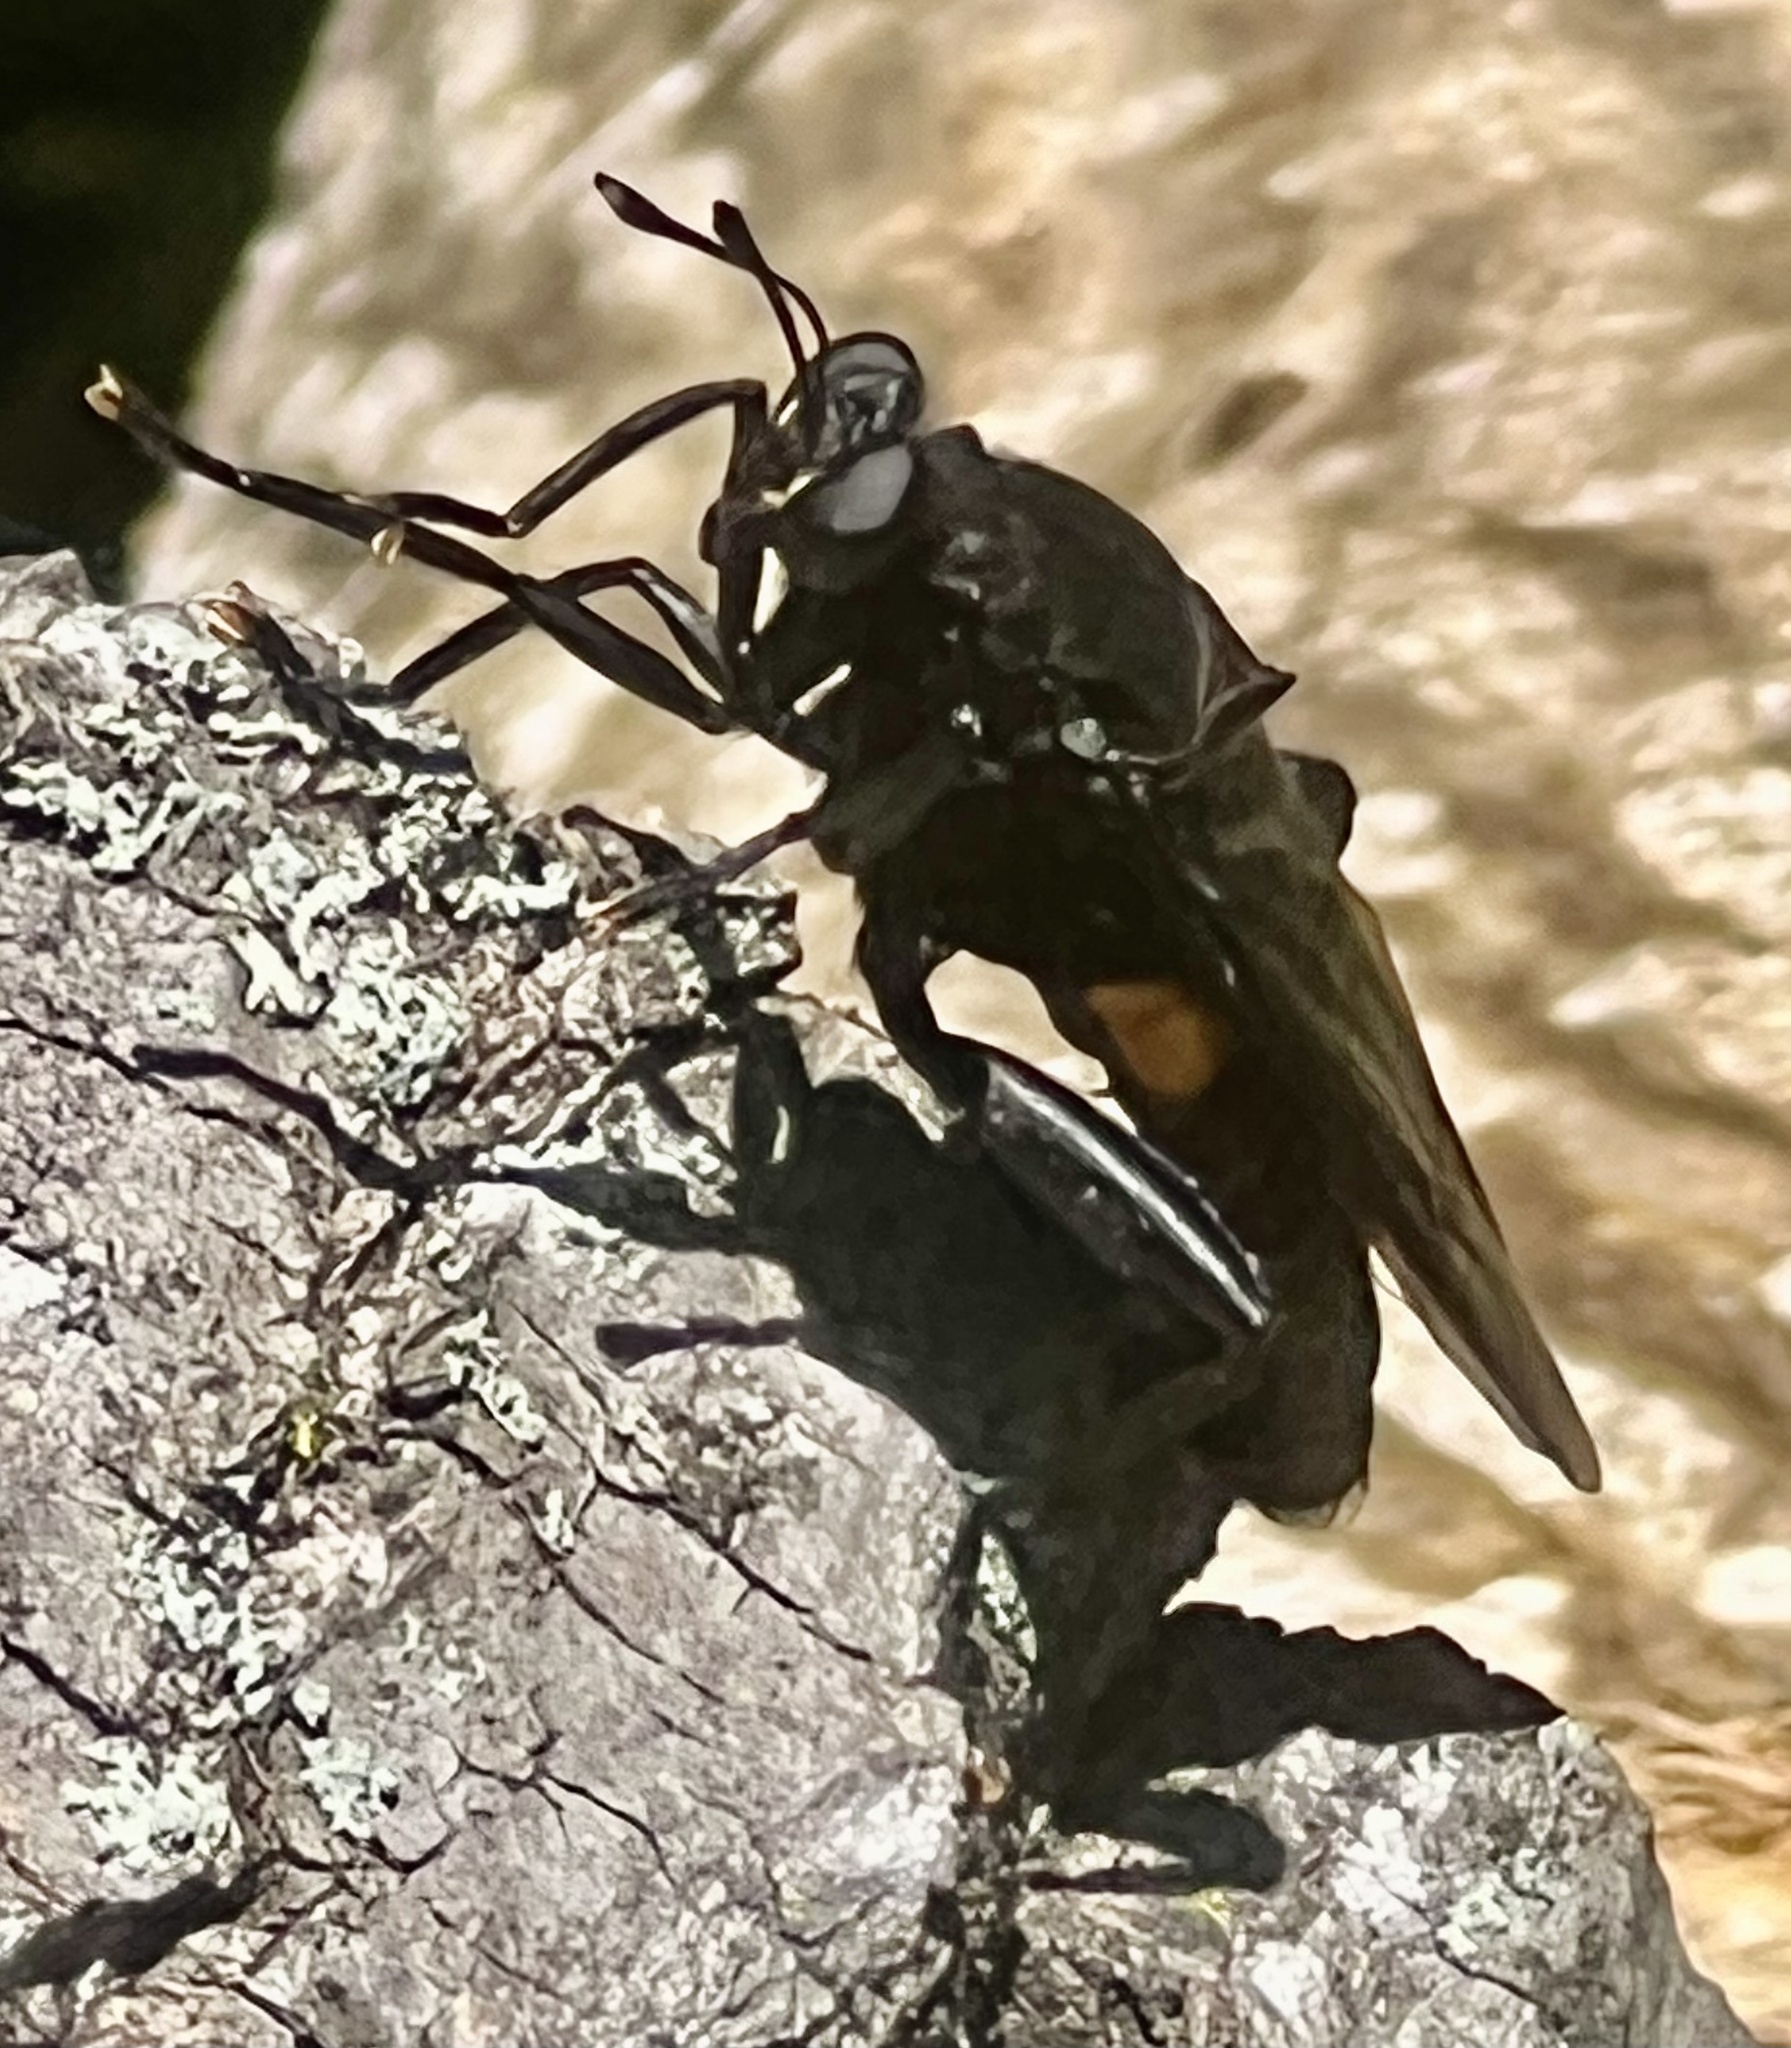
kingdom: Animalia
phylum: Arthropoda
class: Insecta
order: Diptera
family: Mydidae
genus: Mydas
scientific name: Mydas clavatus
